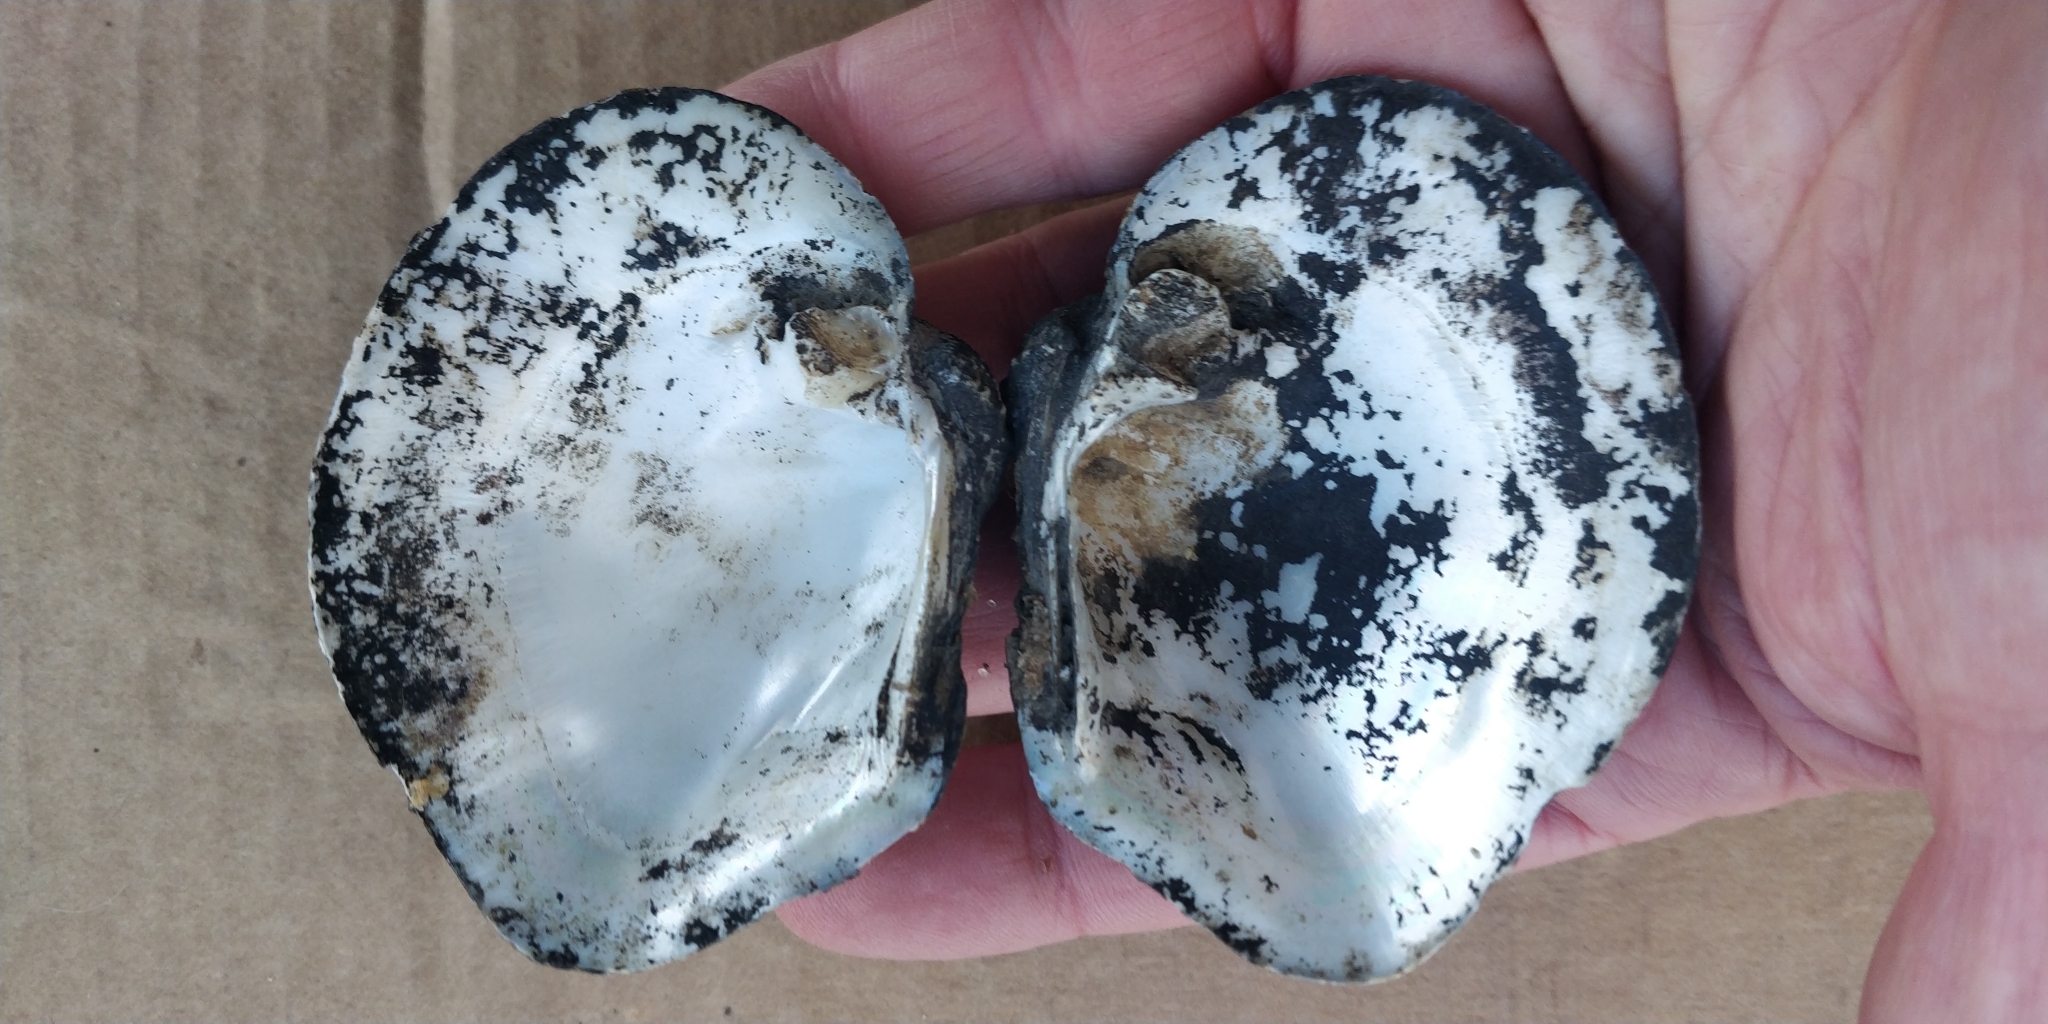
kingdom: Animalia
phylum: Mollusca
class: Bivalvia
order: Unionida
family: Unionidae
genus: Quadrula
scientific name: Quadrula quadrula
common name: Mapleleaf
